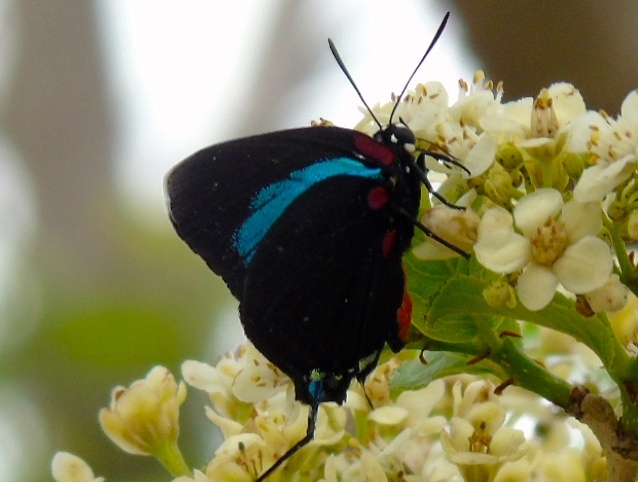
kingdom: Animalia
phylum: Arthropoda
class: Insecta
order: Lepidoptera
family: Lycaenidae
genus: Atlides
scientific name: Atlides
